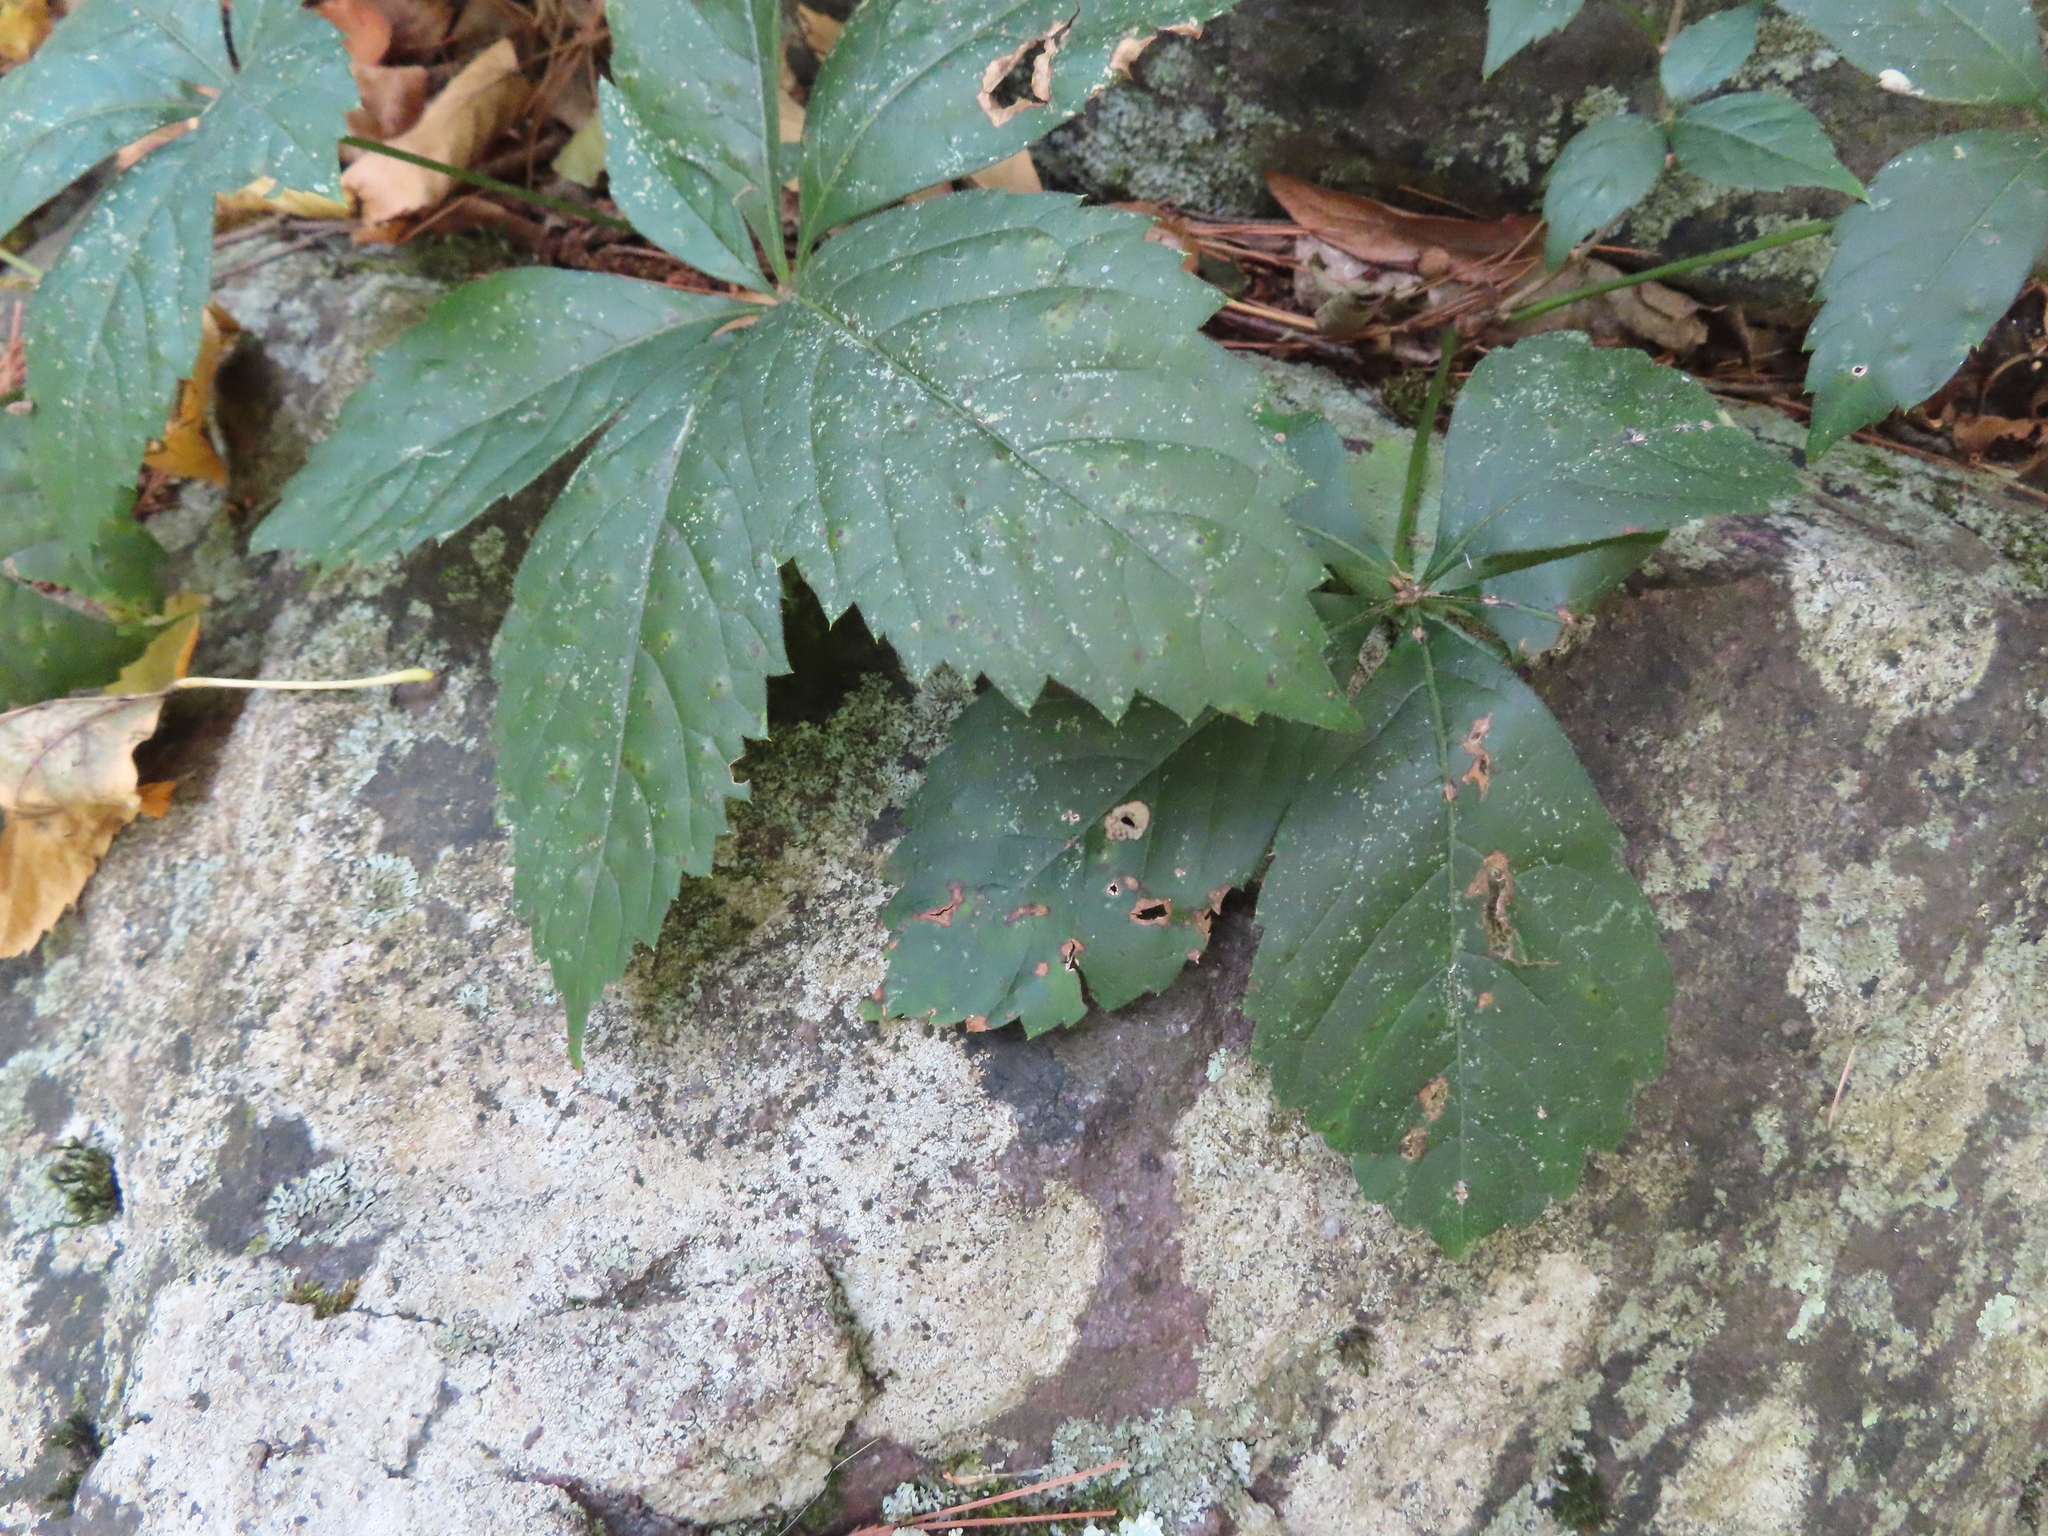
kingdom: Plantae
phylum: Tracheophyta
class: Magnoliopsida
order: Vitales
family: Vitaceae
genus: Parthenocissus
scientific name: Parthenocissus quinquefolia
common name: Virginia-creeper
